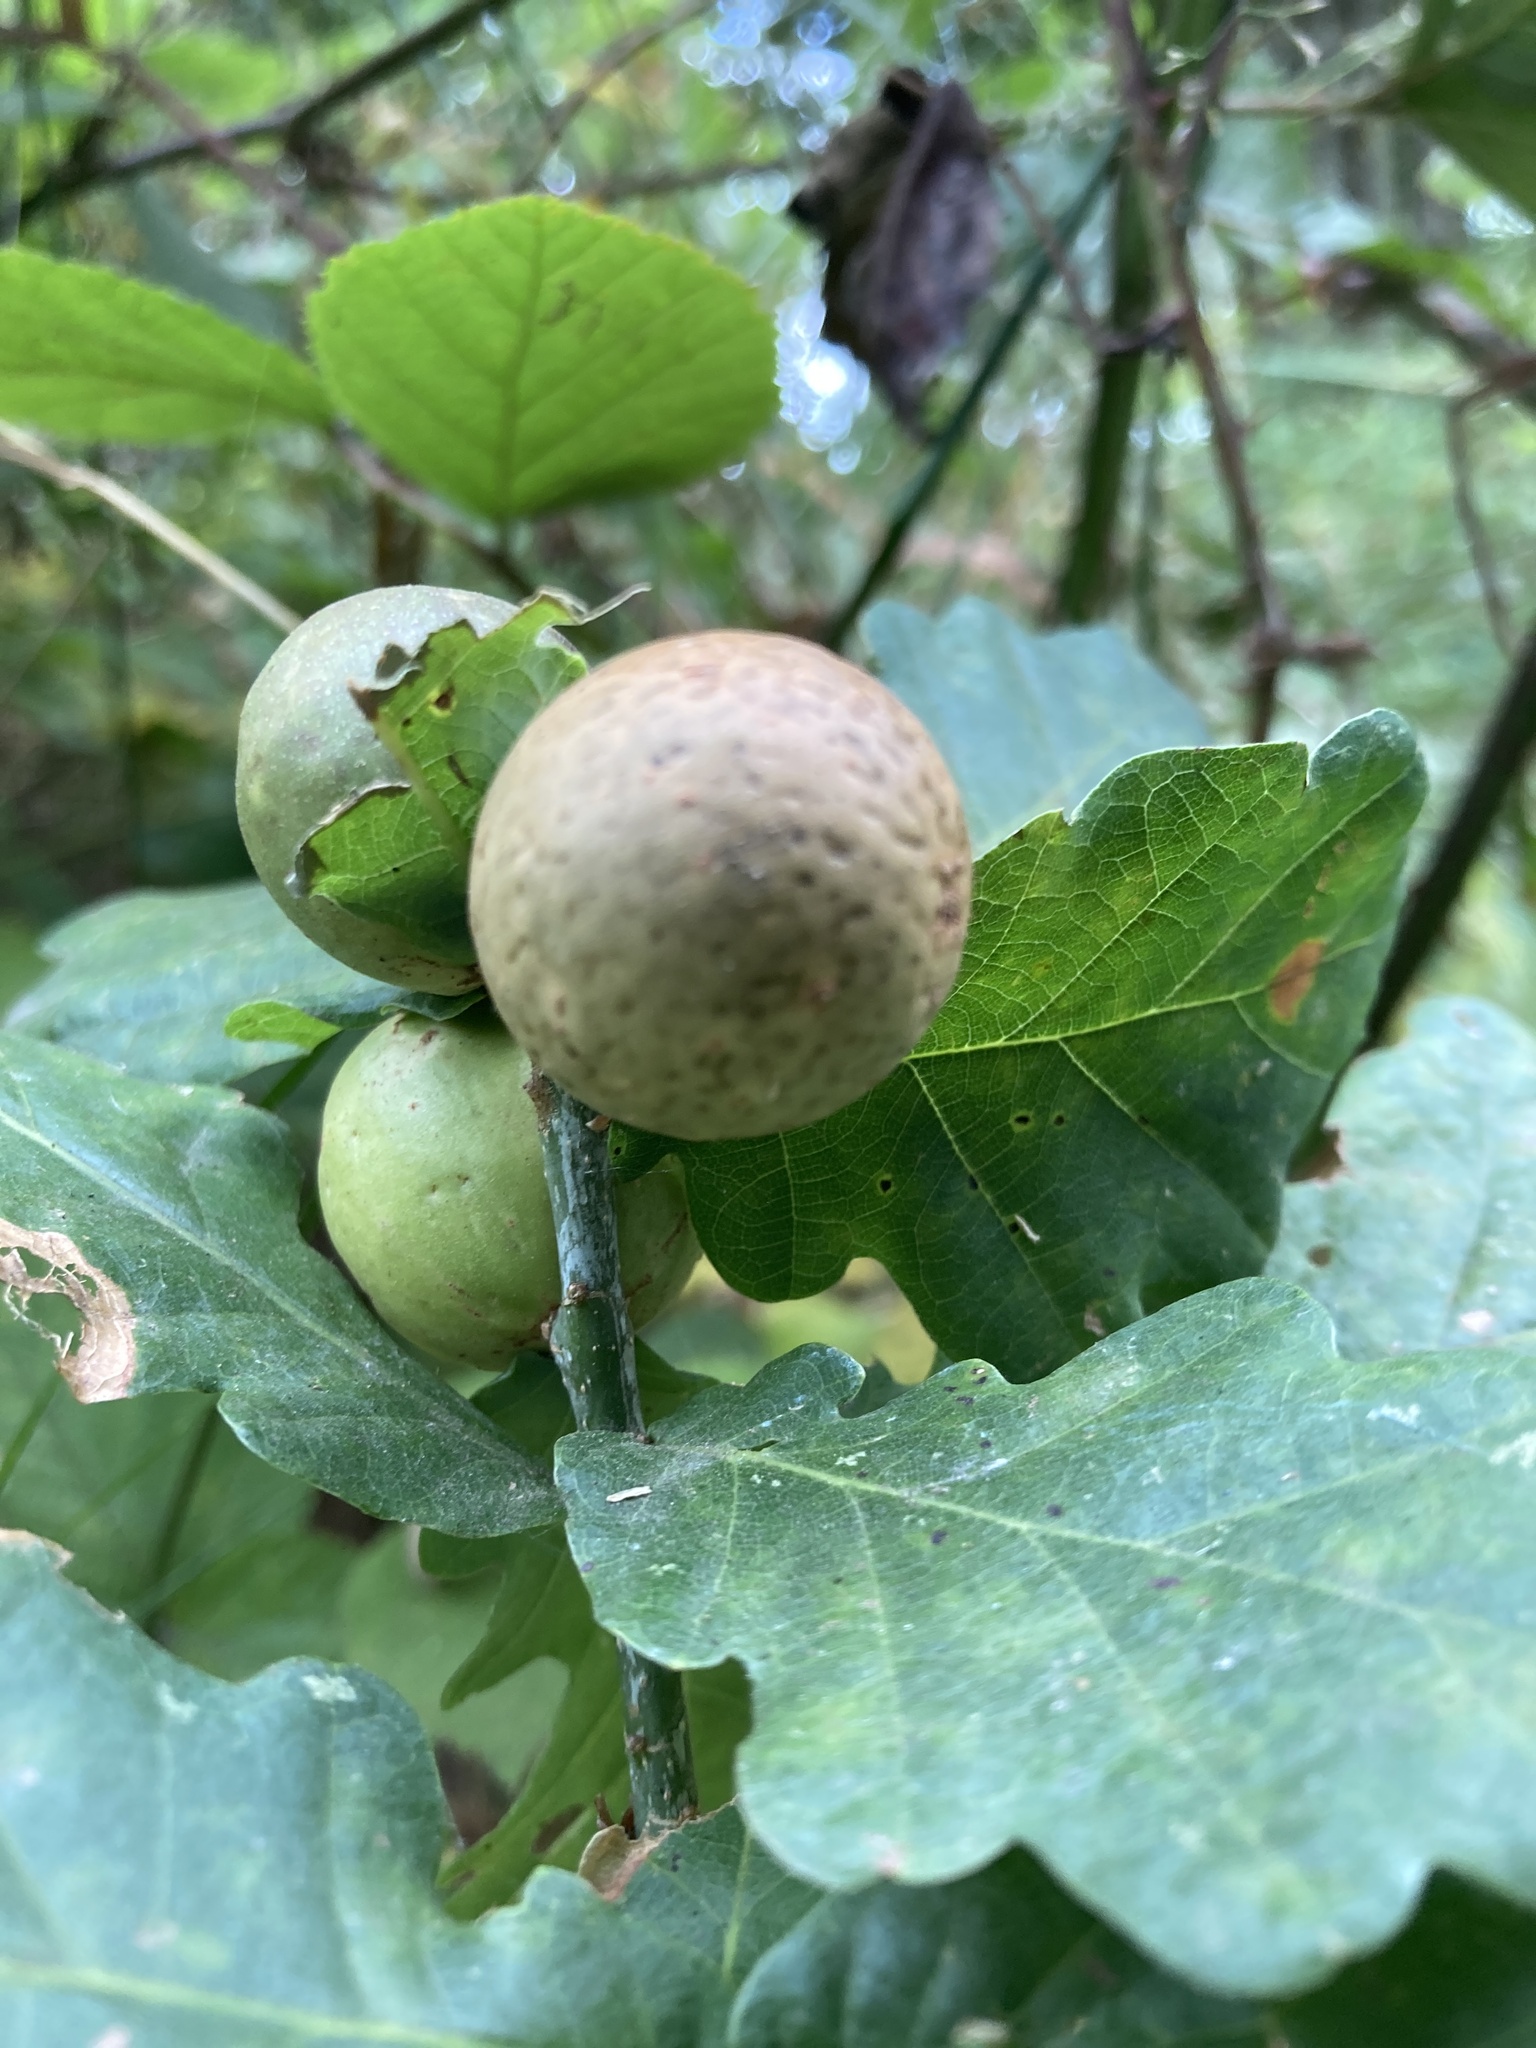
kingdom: Animalia
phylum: Arthropoda
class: Insecta
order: Hymenoptera
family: Cynipidae
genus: Andricus
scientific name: Andricus kollari
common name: Marble gall
